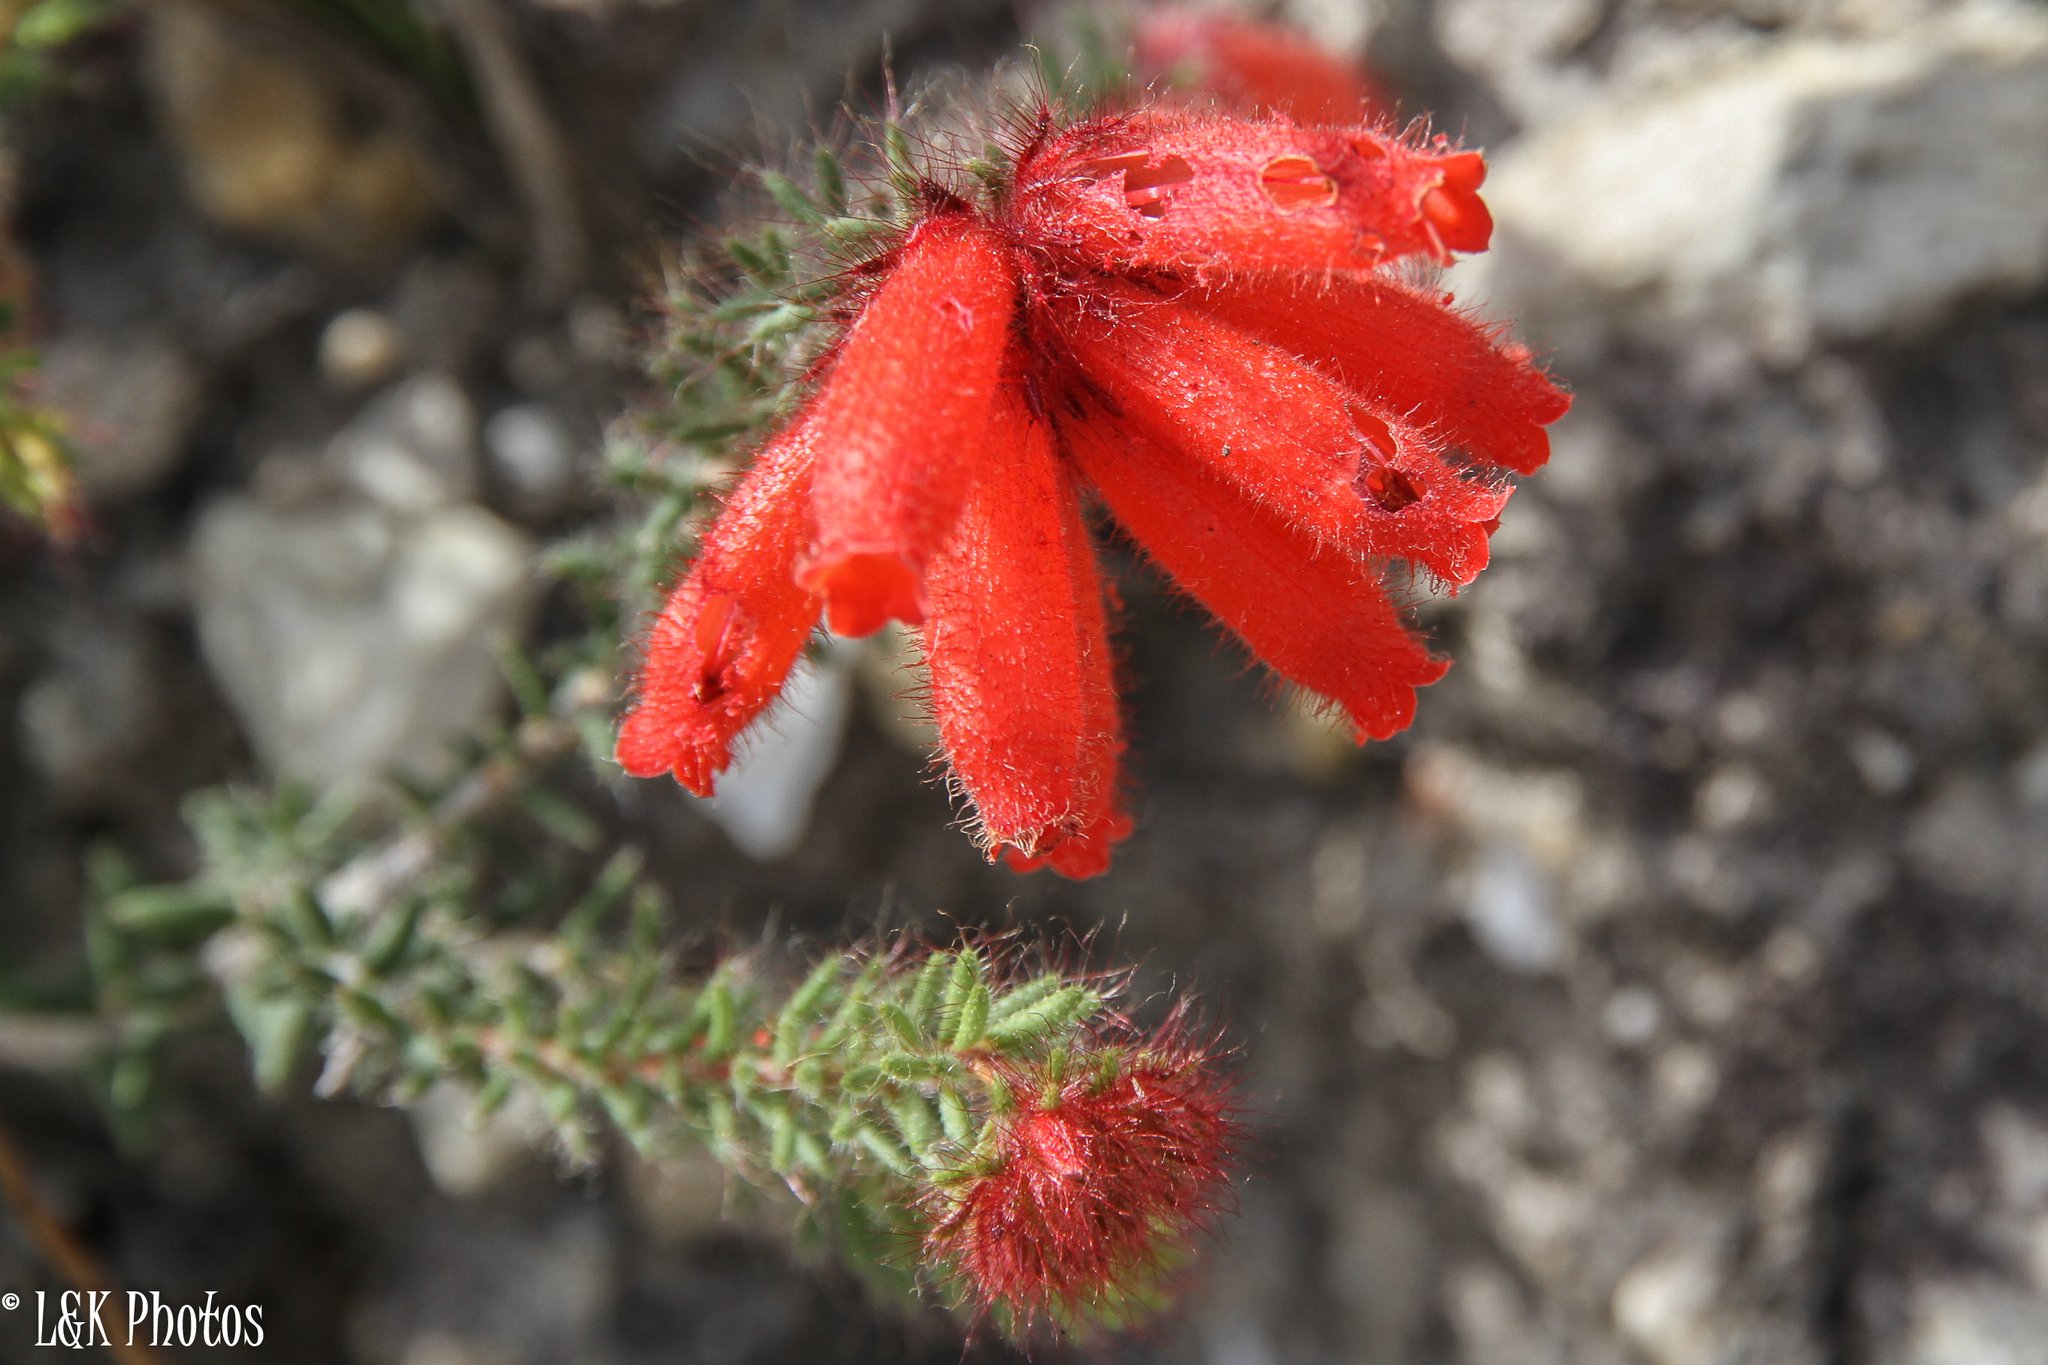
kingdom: Plantae
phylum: Tracheophyta
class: Magnoliopsida
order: Ericales
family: Ericaceae
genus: Erica
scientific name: Erica cerinthoides
